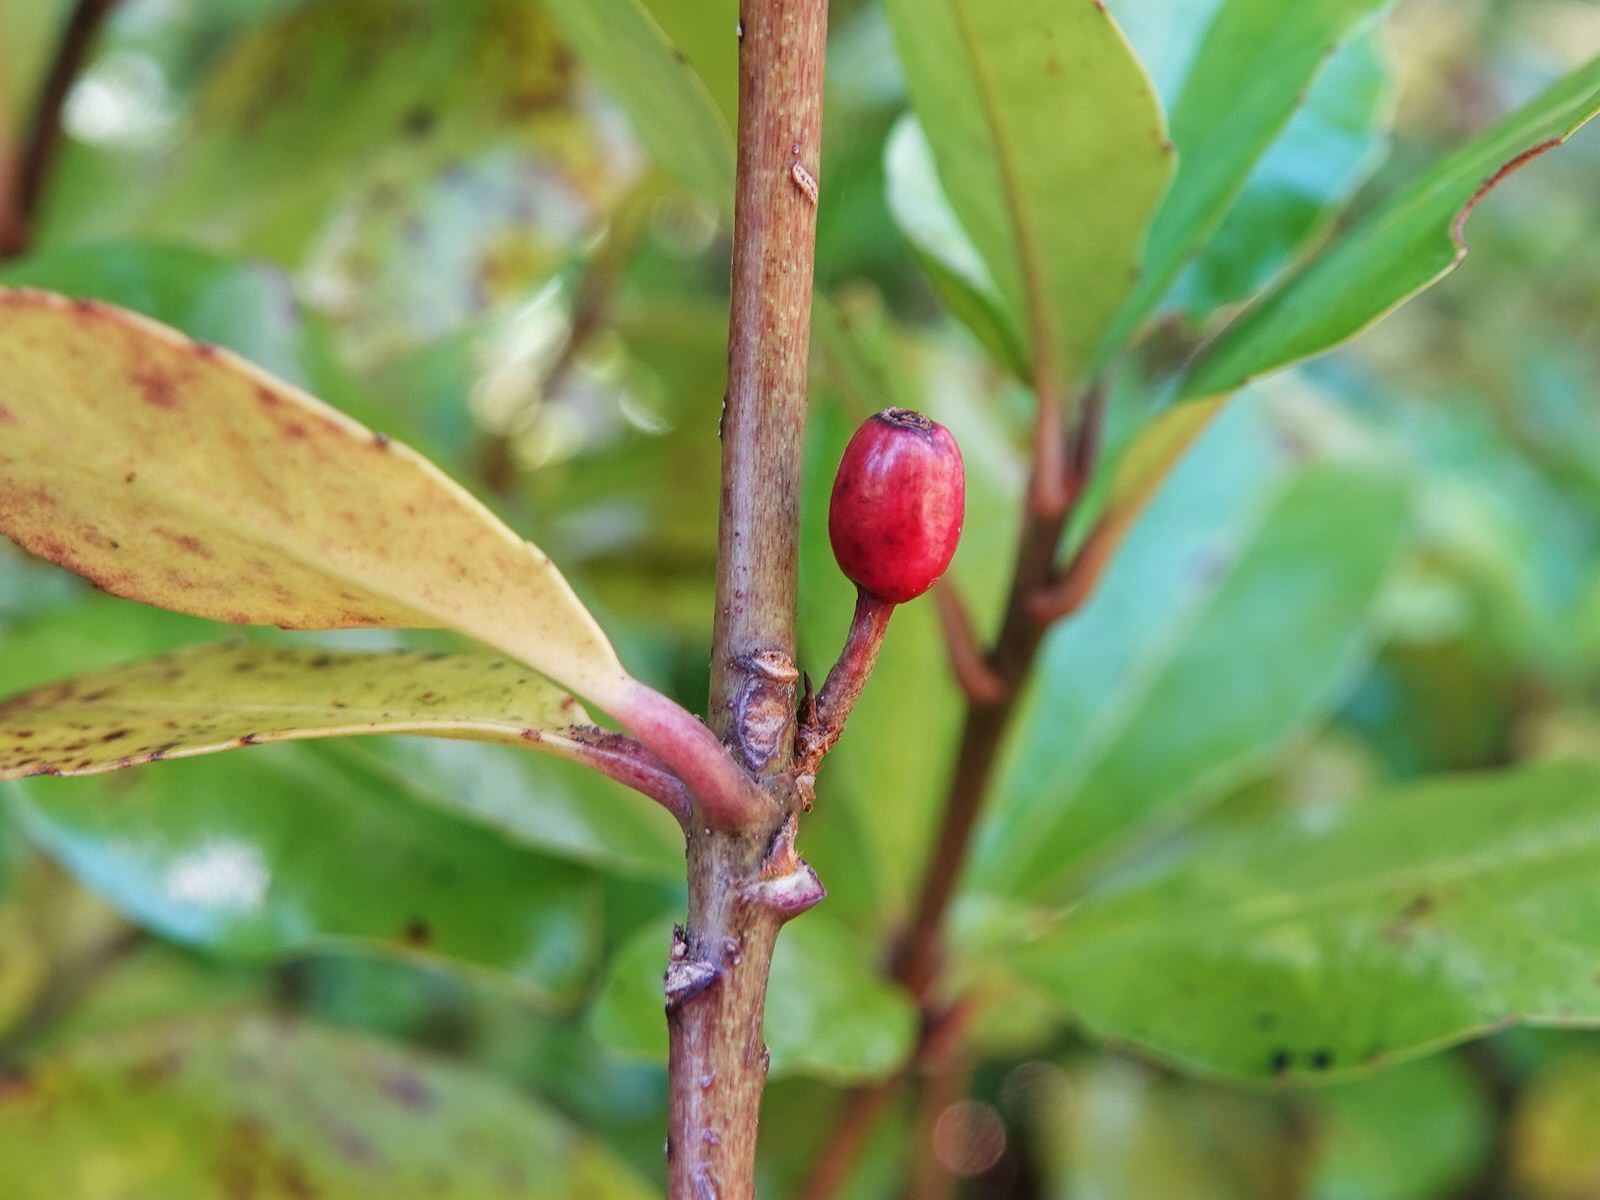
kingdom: Plantae
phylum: Tracheophyta
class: Magnoliopsida
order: Asterales
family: Alseuosmiaceae
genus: Alseuosmia
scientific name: Alseuosmia macrophylla
